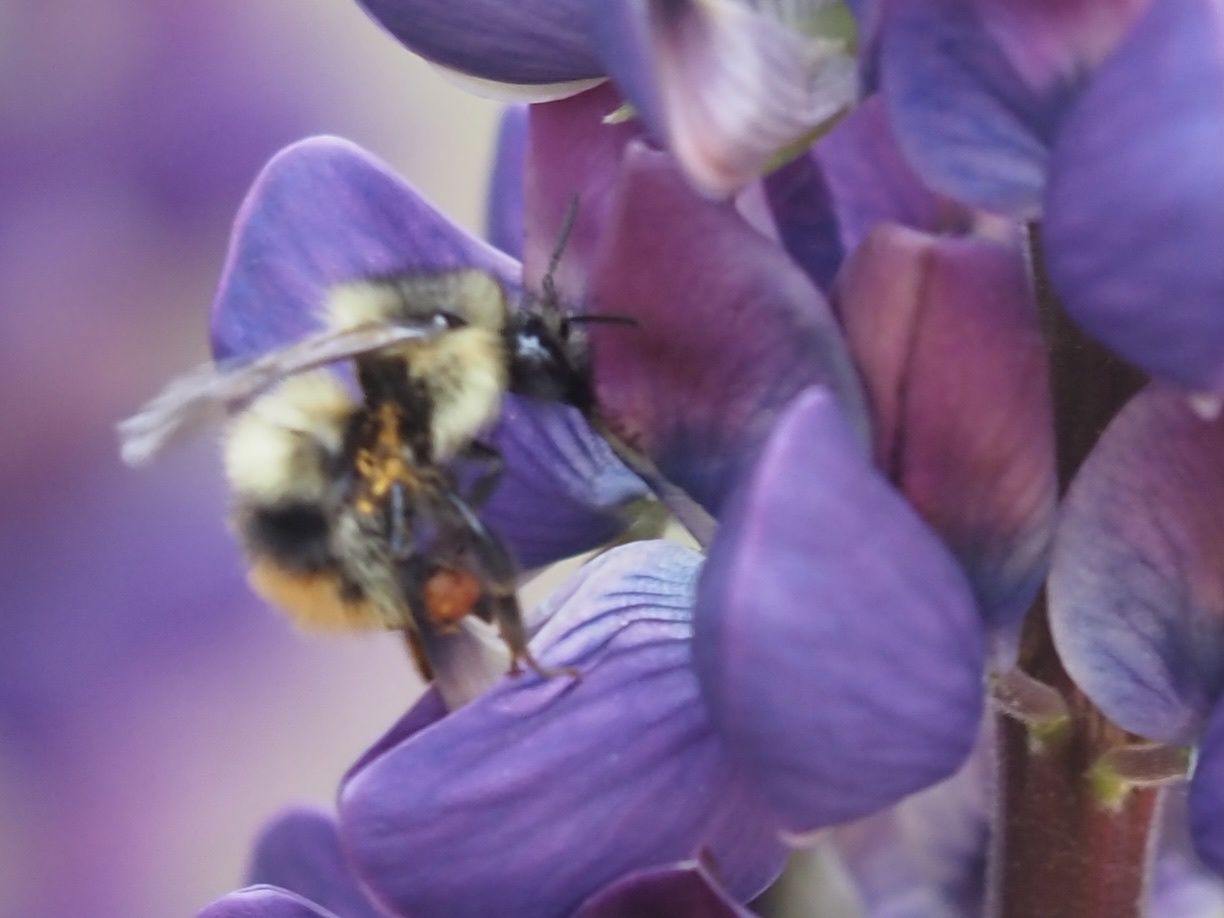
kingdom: Animalia
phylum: Arthropoda
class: Insecta
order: Hymenoptera
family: Apidae
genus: Bombus
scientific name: Bombus mixtus
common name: Fuzzy-horned bumble bee
